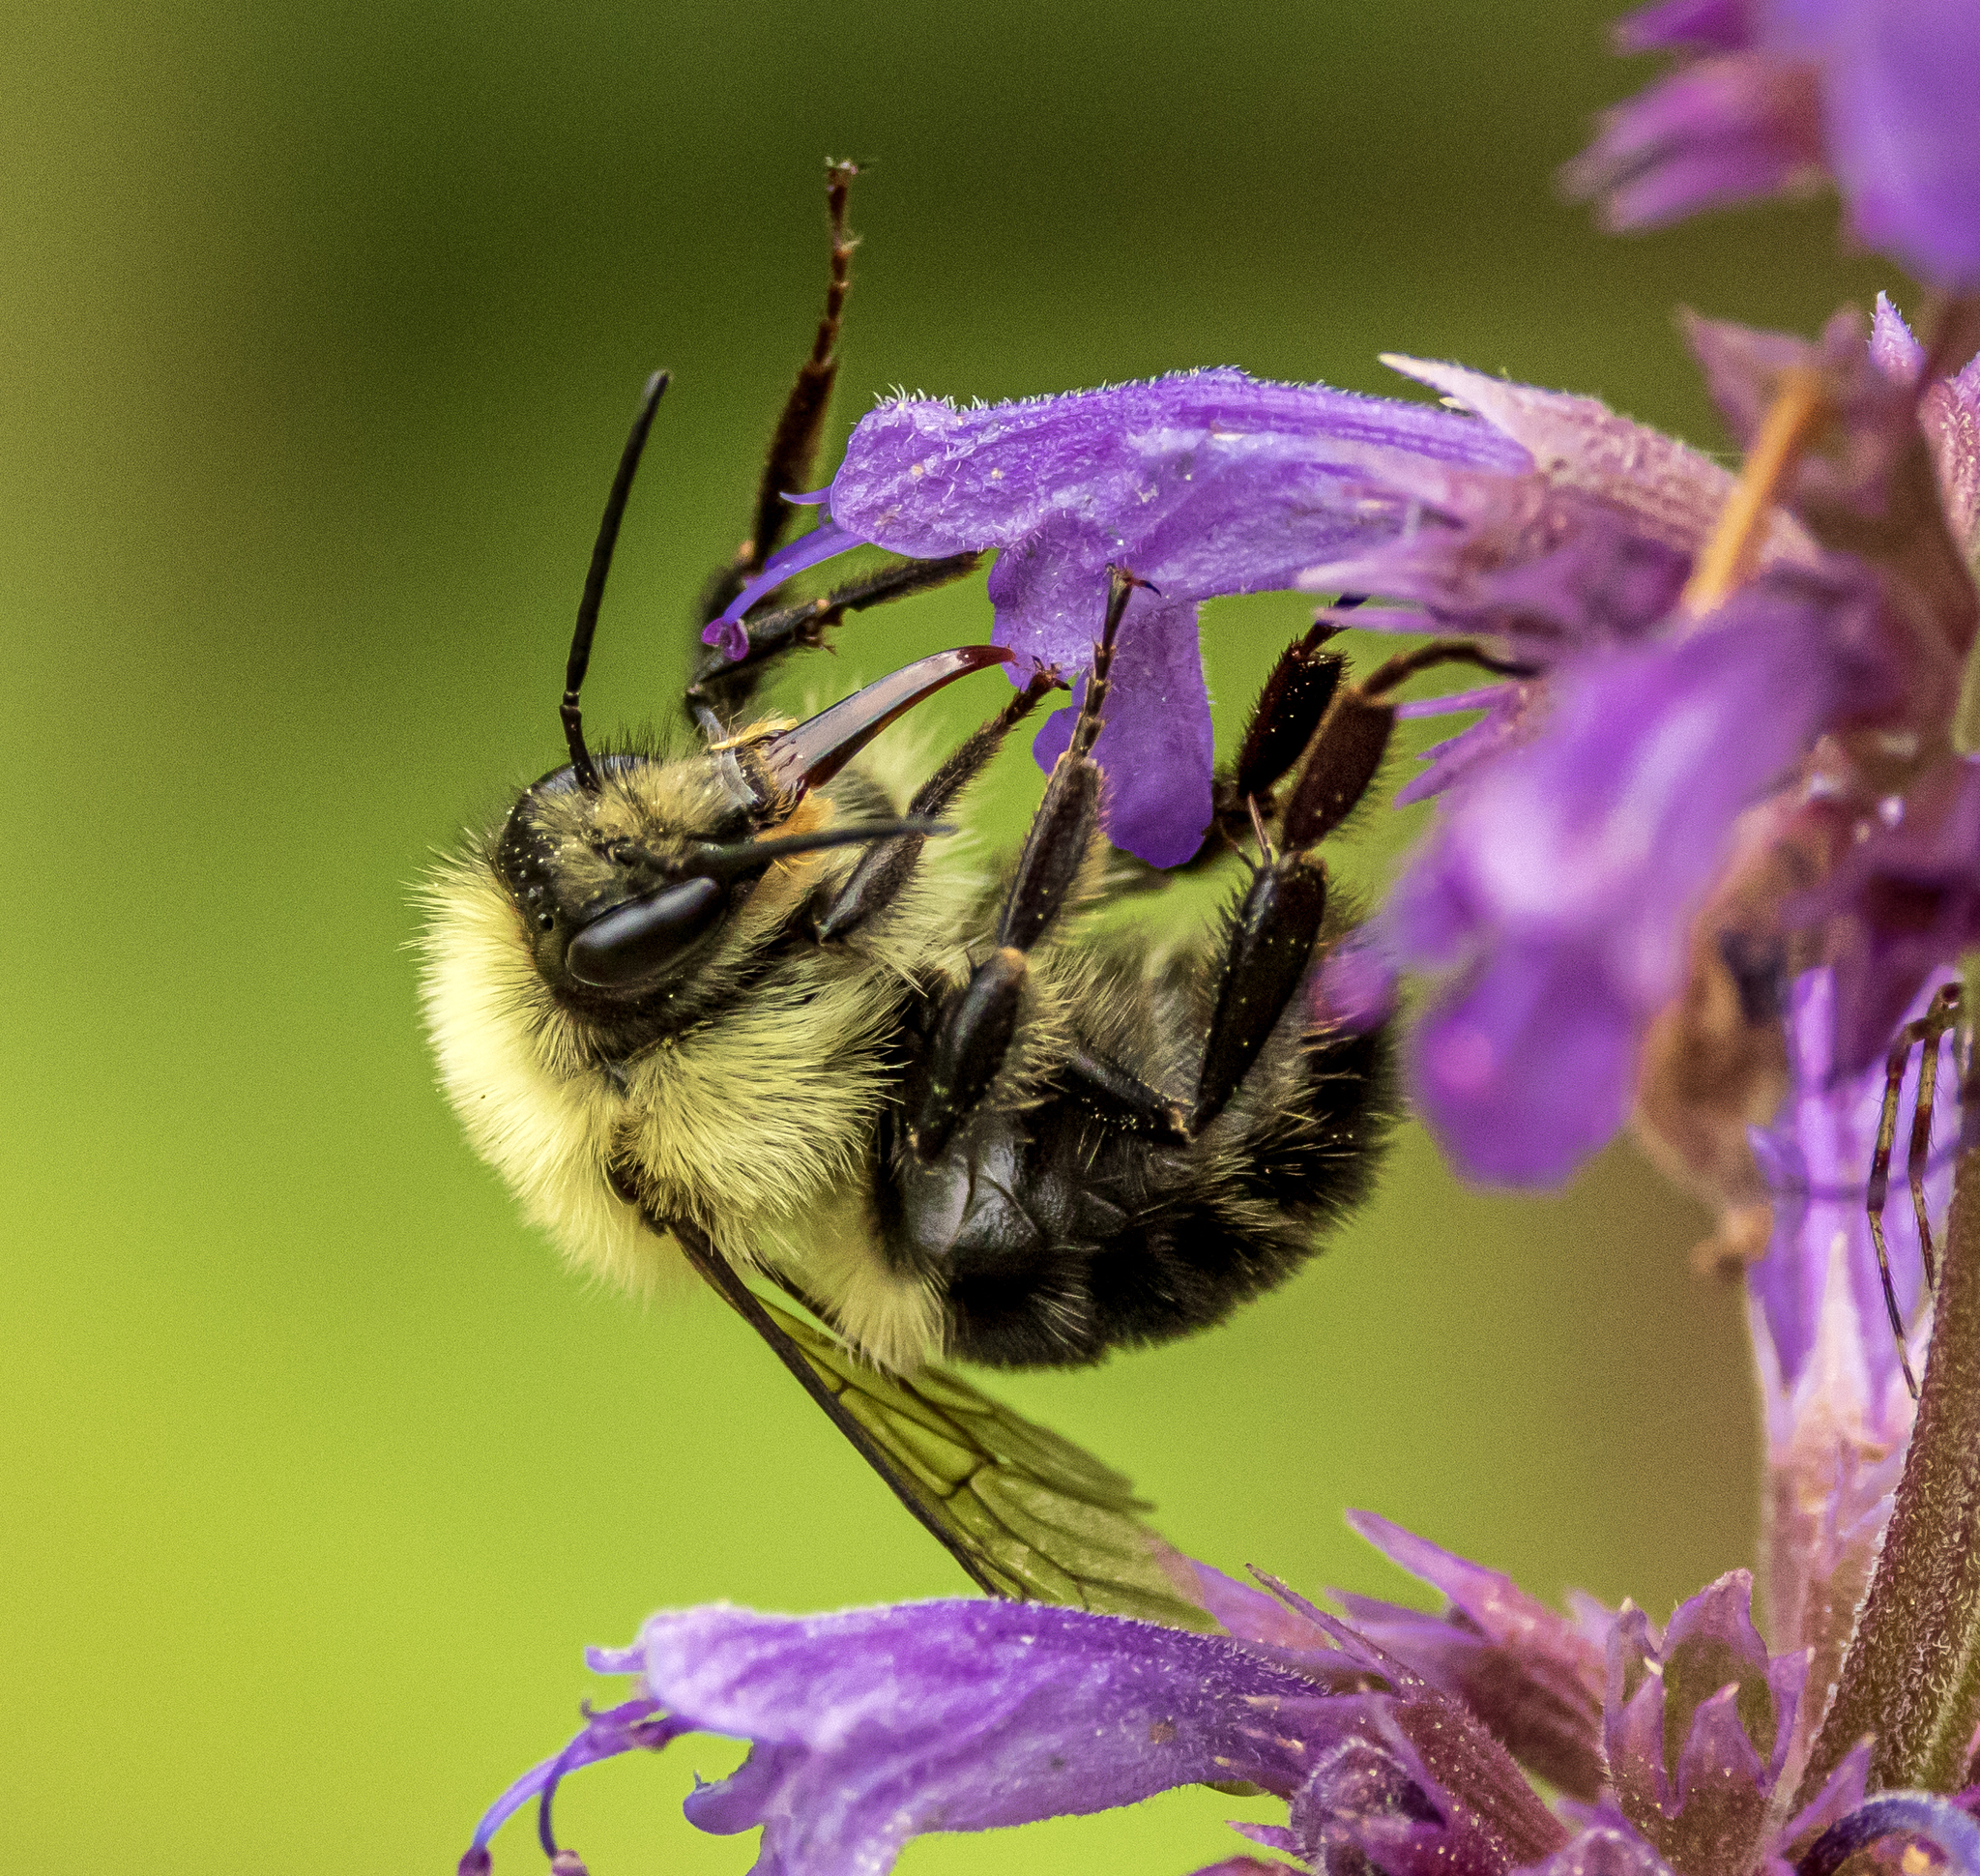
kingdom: Animalia
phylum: Arthropoda
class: Insecta
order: Hymenoptera
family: Apidae
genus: Bombus
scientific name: Bombus bimaculatus
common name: Two-spotted bumble bee
